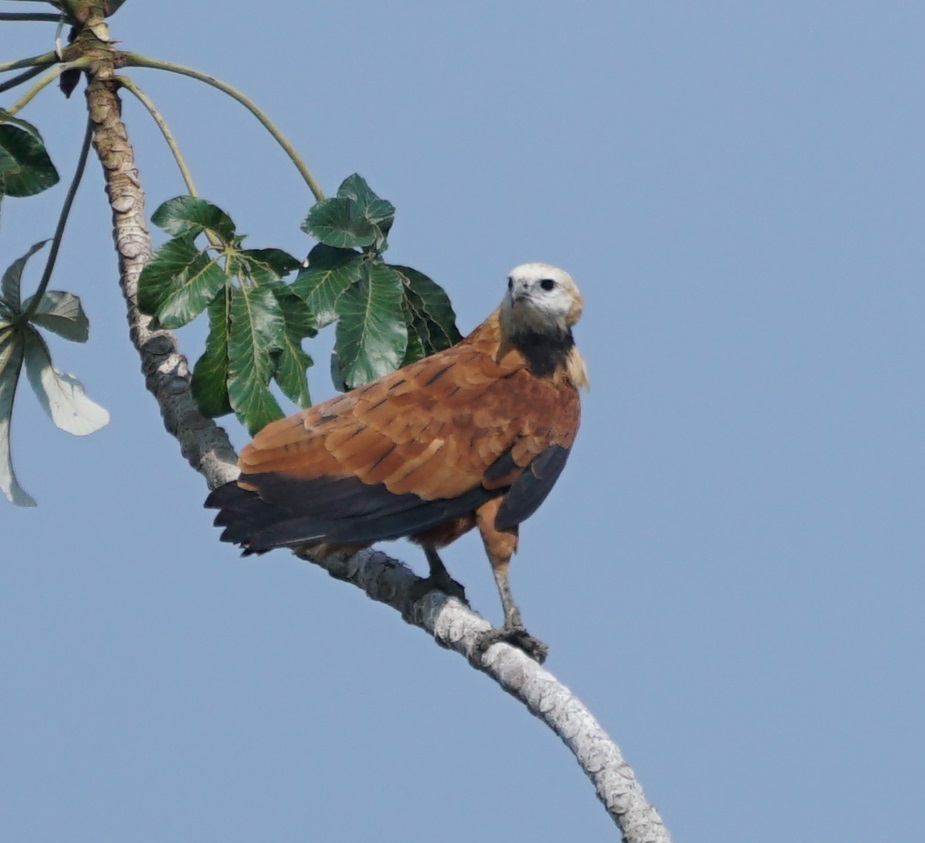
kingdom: Animalia
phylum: Chordata
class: Aves
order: Accipitriformes
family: Accipitridae
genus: Busarellus
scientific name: Busarellus nigricollis
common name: Black-collared hawk
